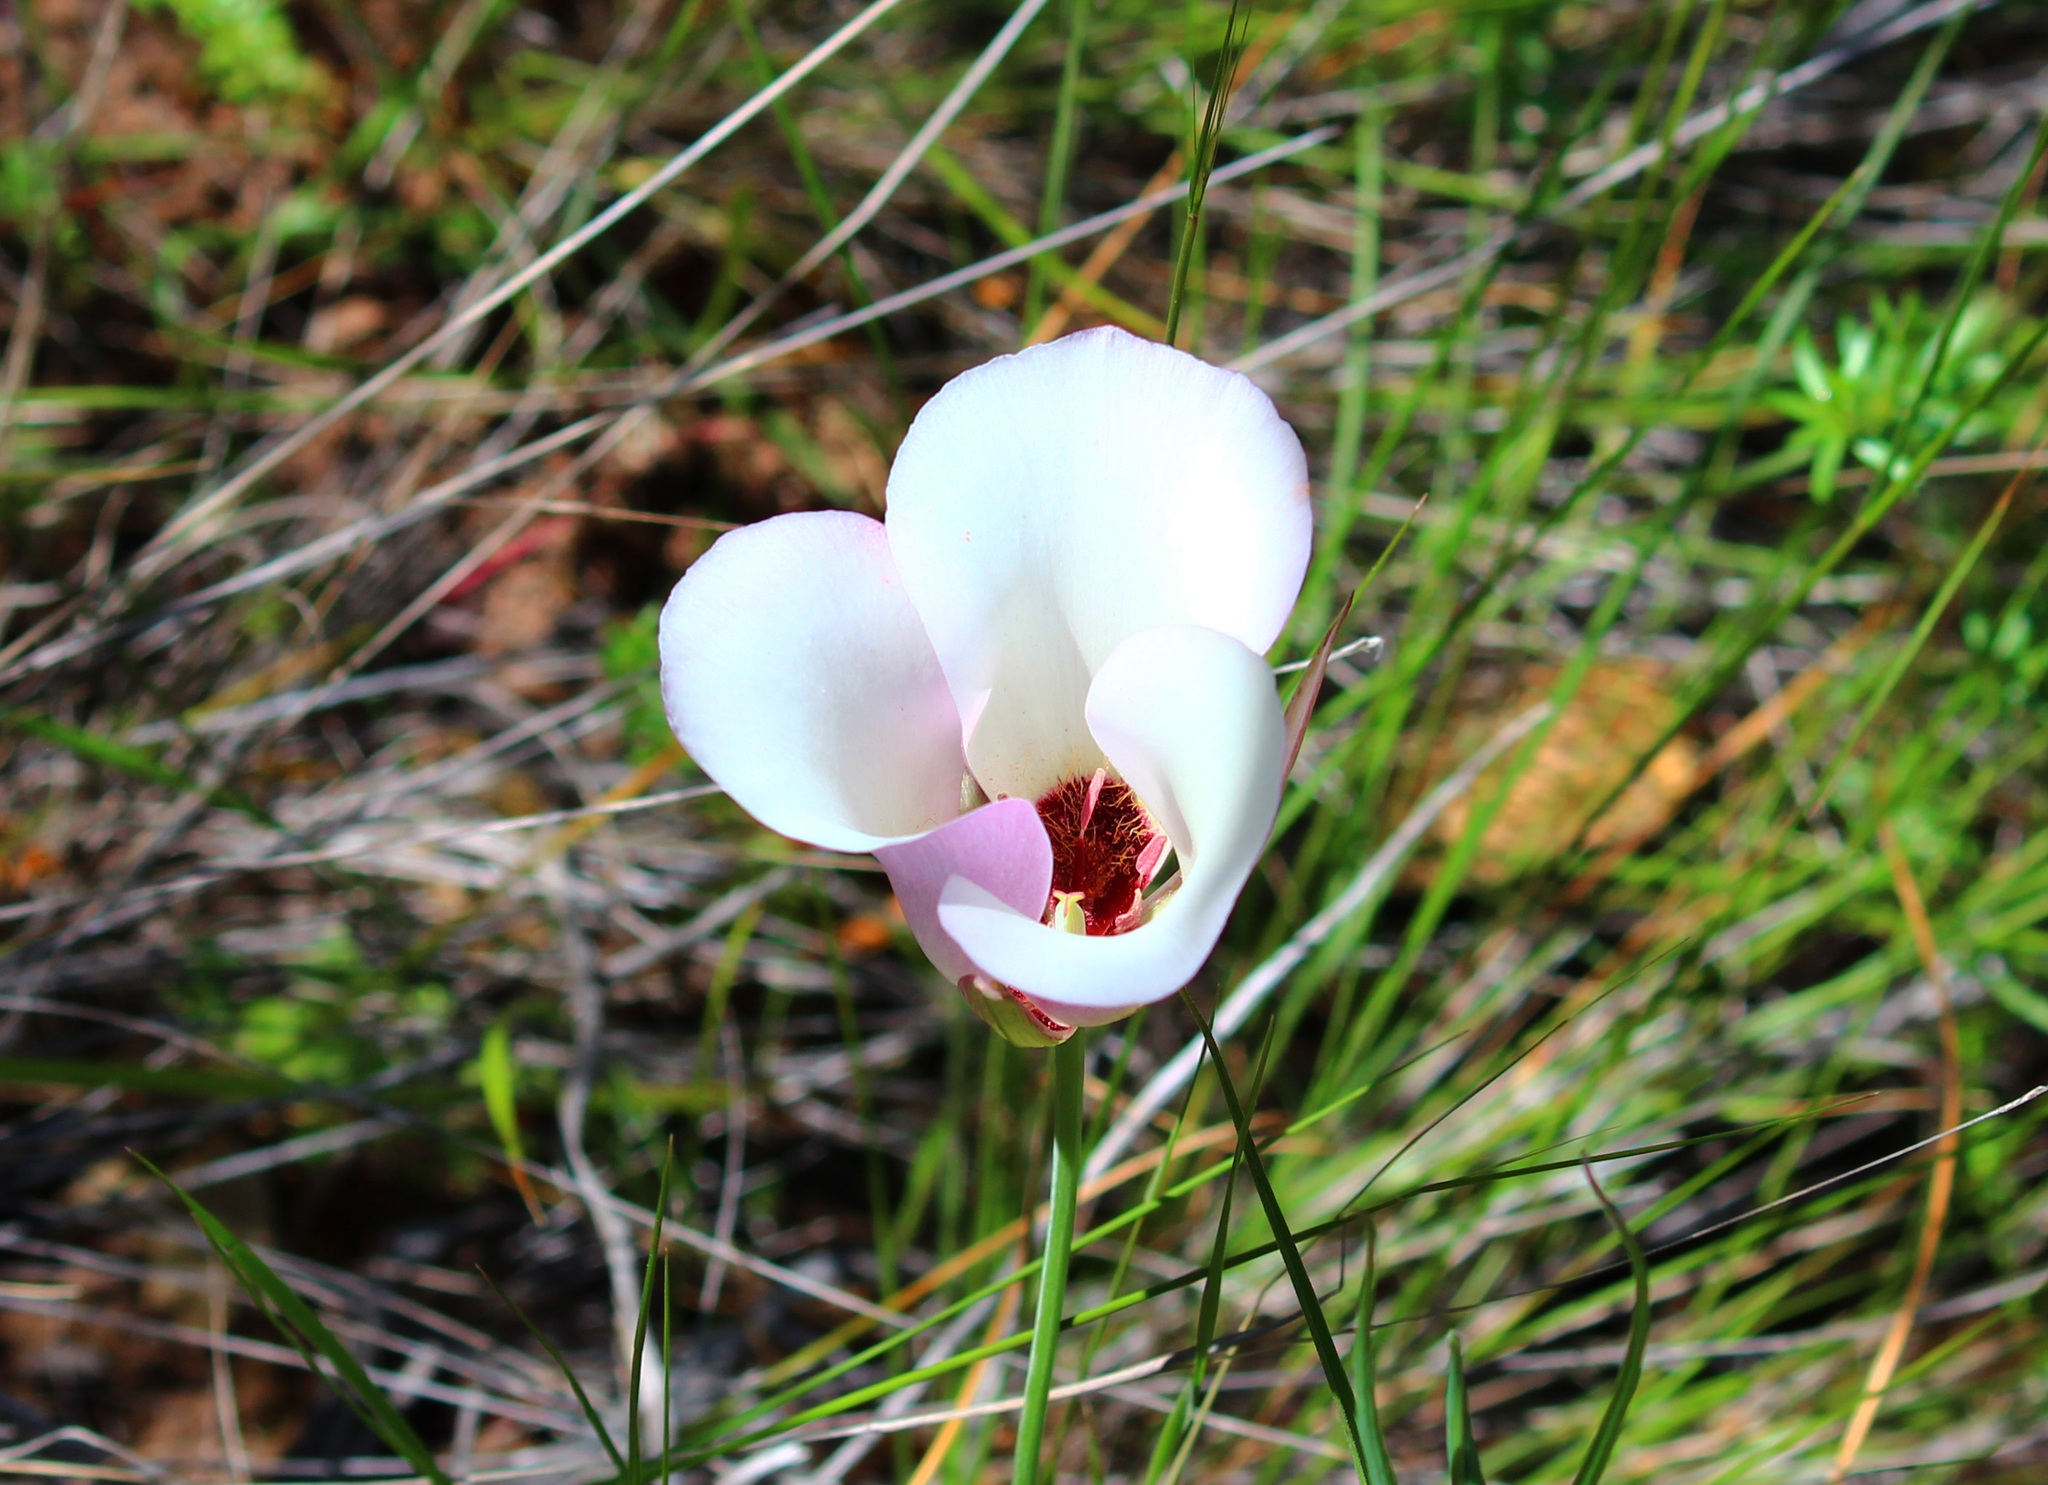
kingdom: Plantae
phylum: Tracheophyta
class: Liliopsida
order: Liliales
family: Liliaceae
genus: Calochortus
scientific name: Calochortus catalinae
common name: Catalina mariposa-lily
